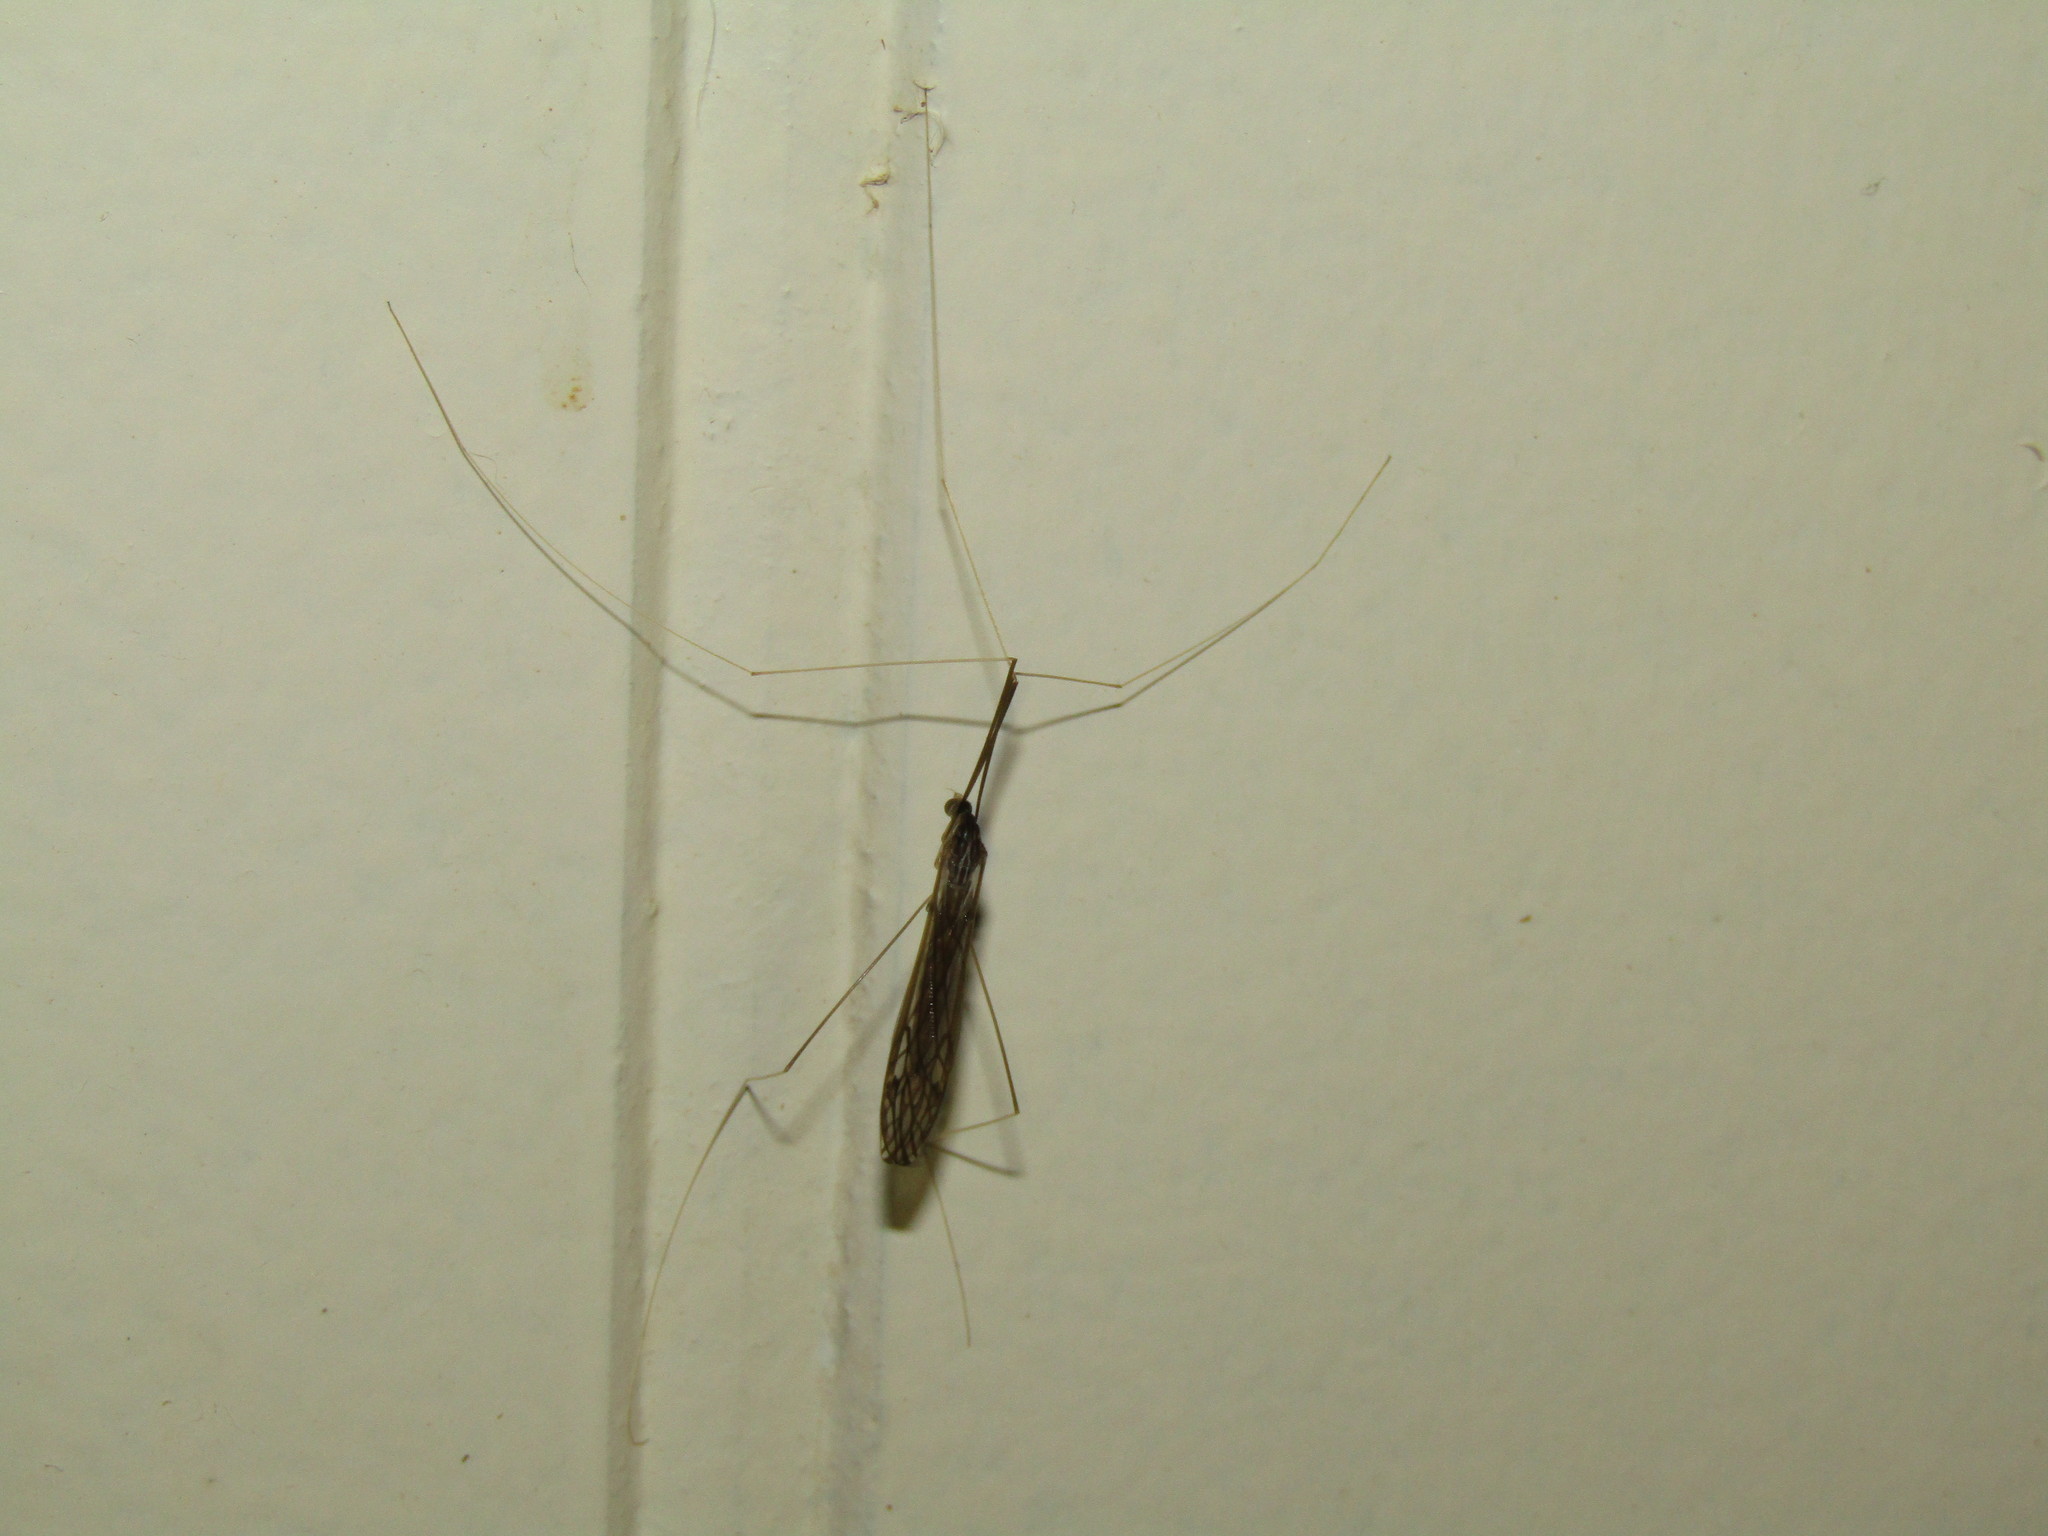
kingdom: Animalia
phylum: Arthropoda
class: Insecta
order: Diptera
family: Tipulidae
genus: Brachypremna
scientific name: Brachypremna dispellens
